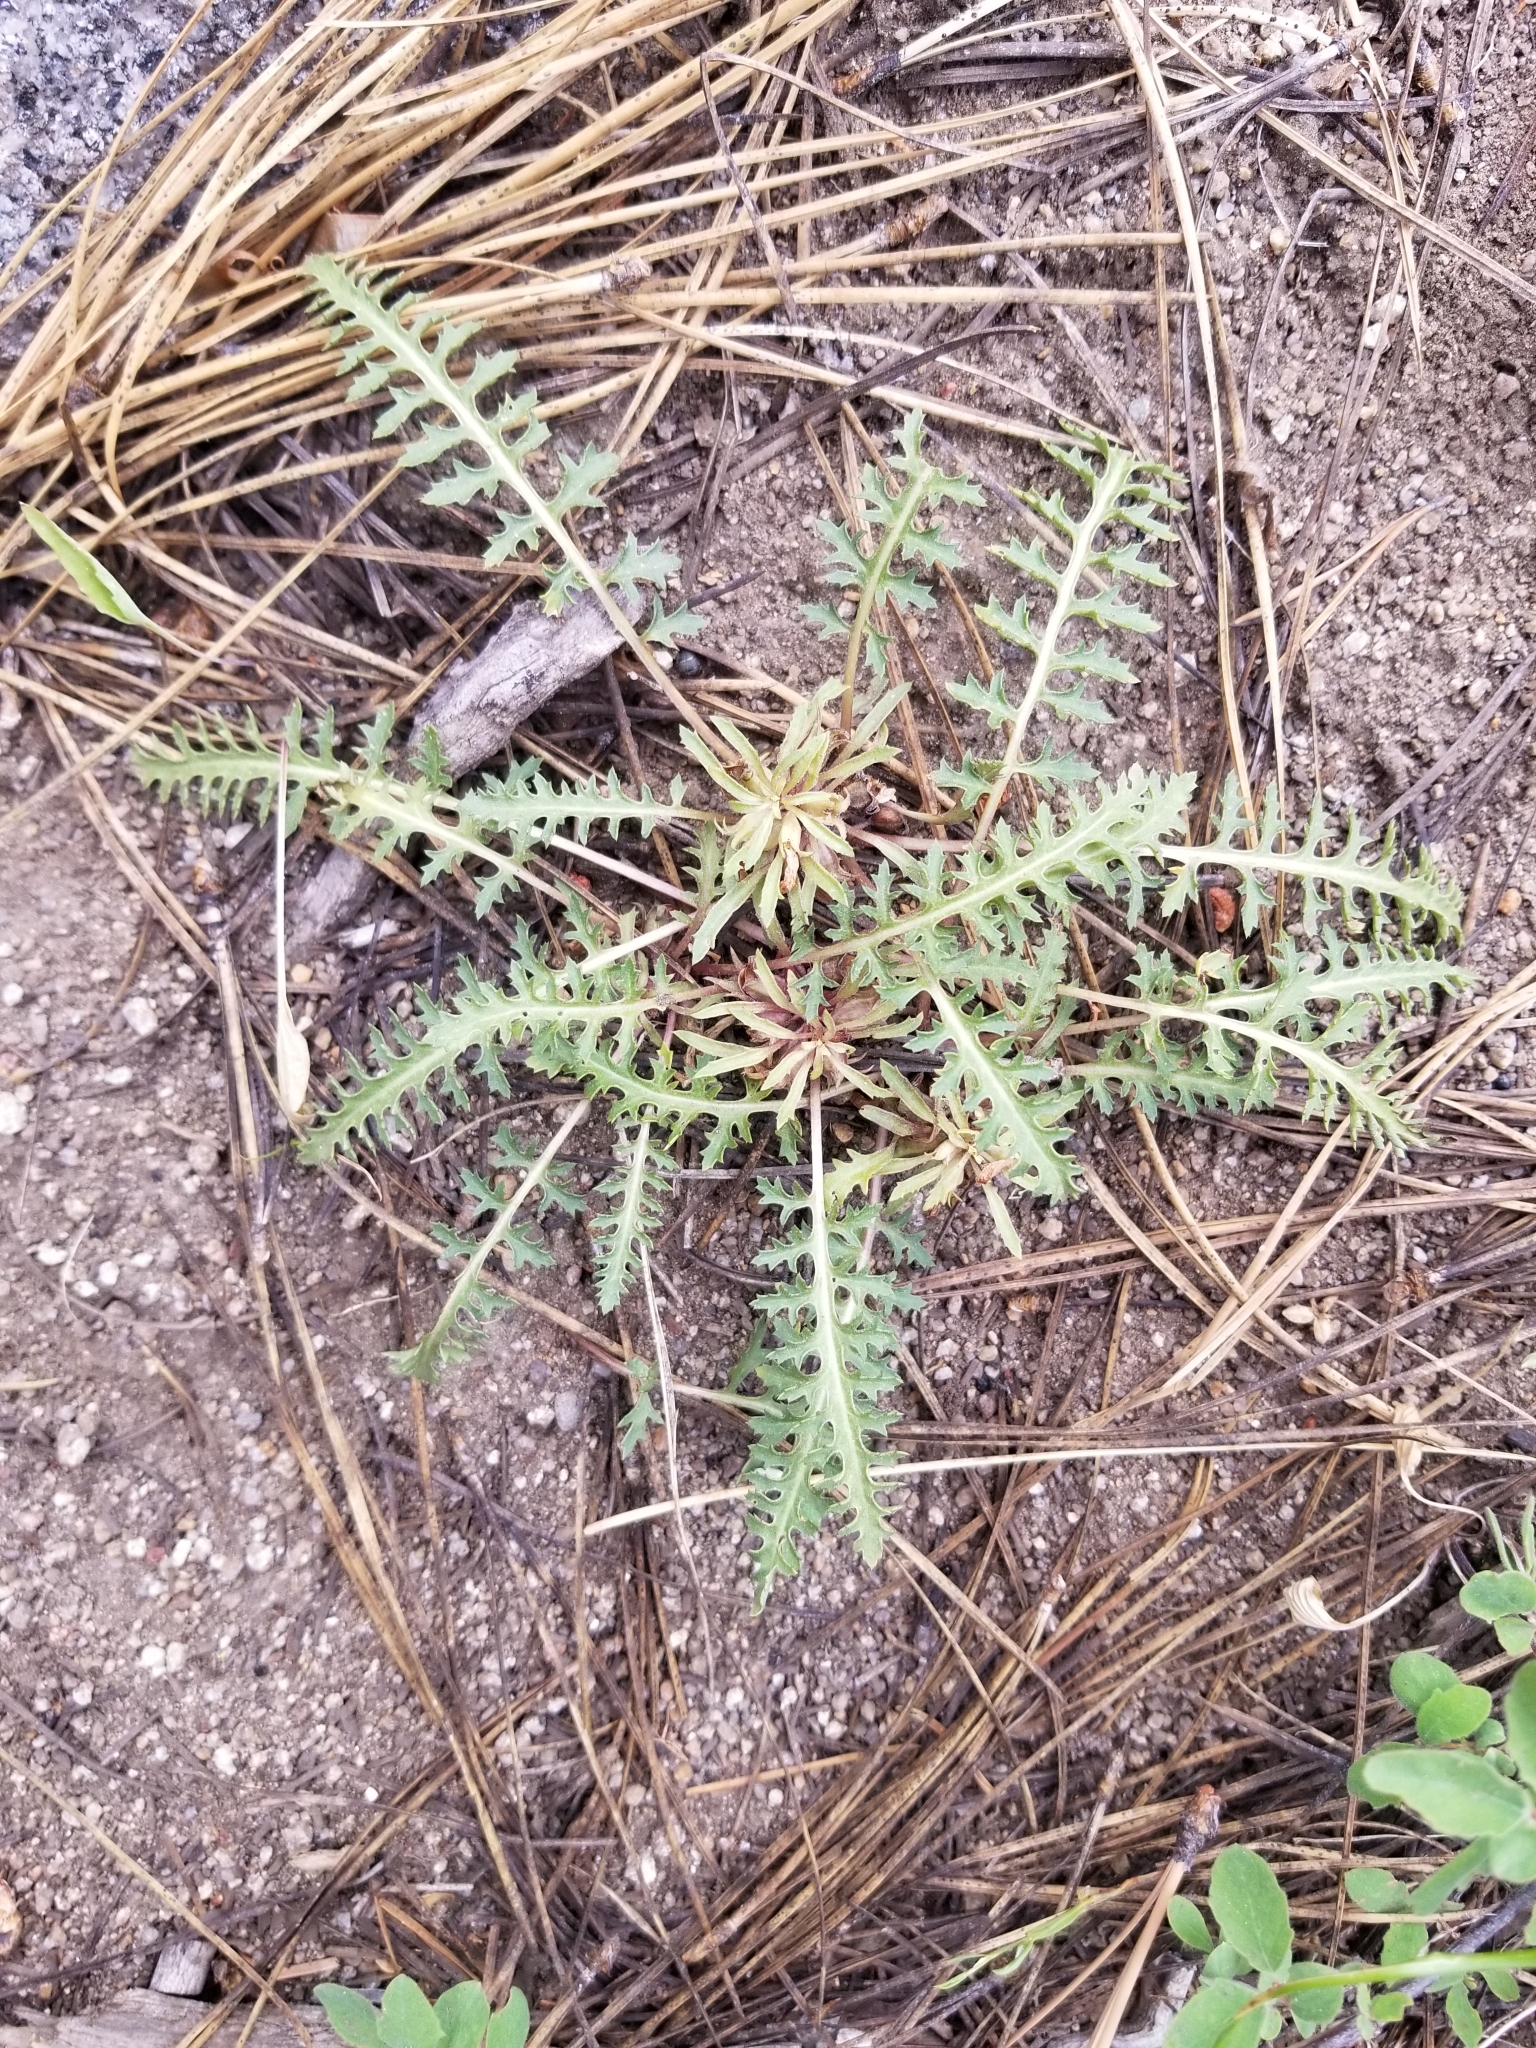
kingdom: Plantae
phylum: Tracheophyta
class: Magnoliopsida
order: Lamiales
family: Orobanchaceae
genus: Pedicularis
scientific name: Pedicularis semibarbata
